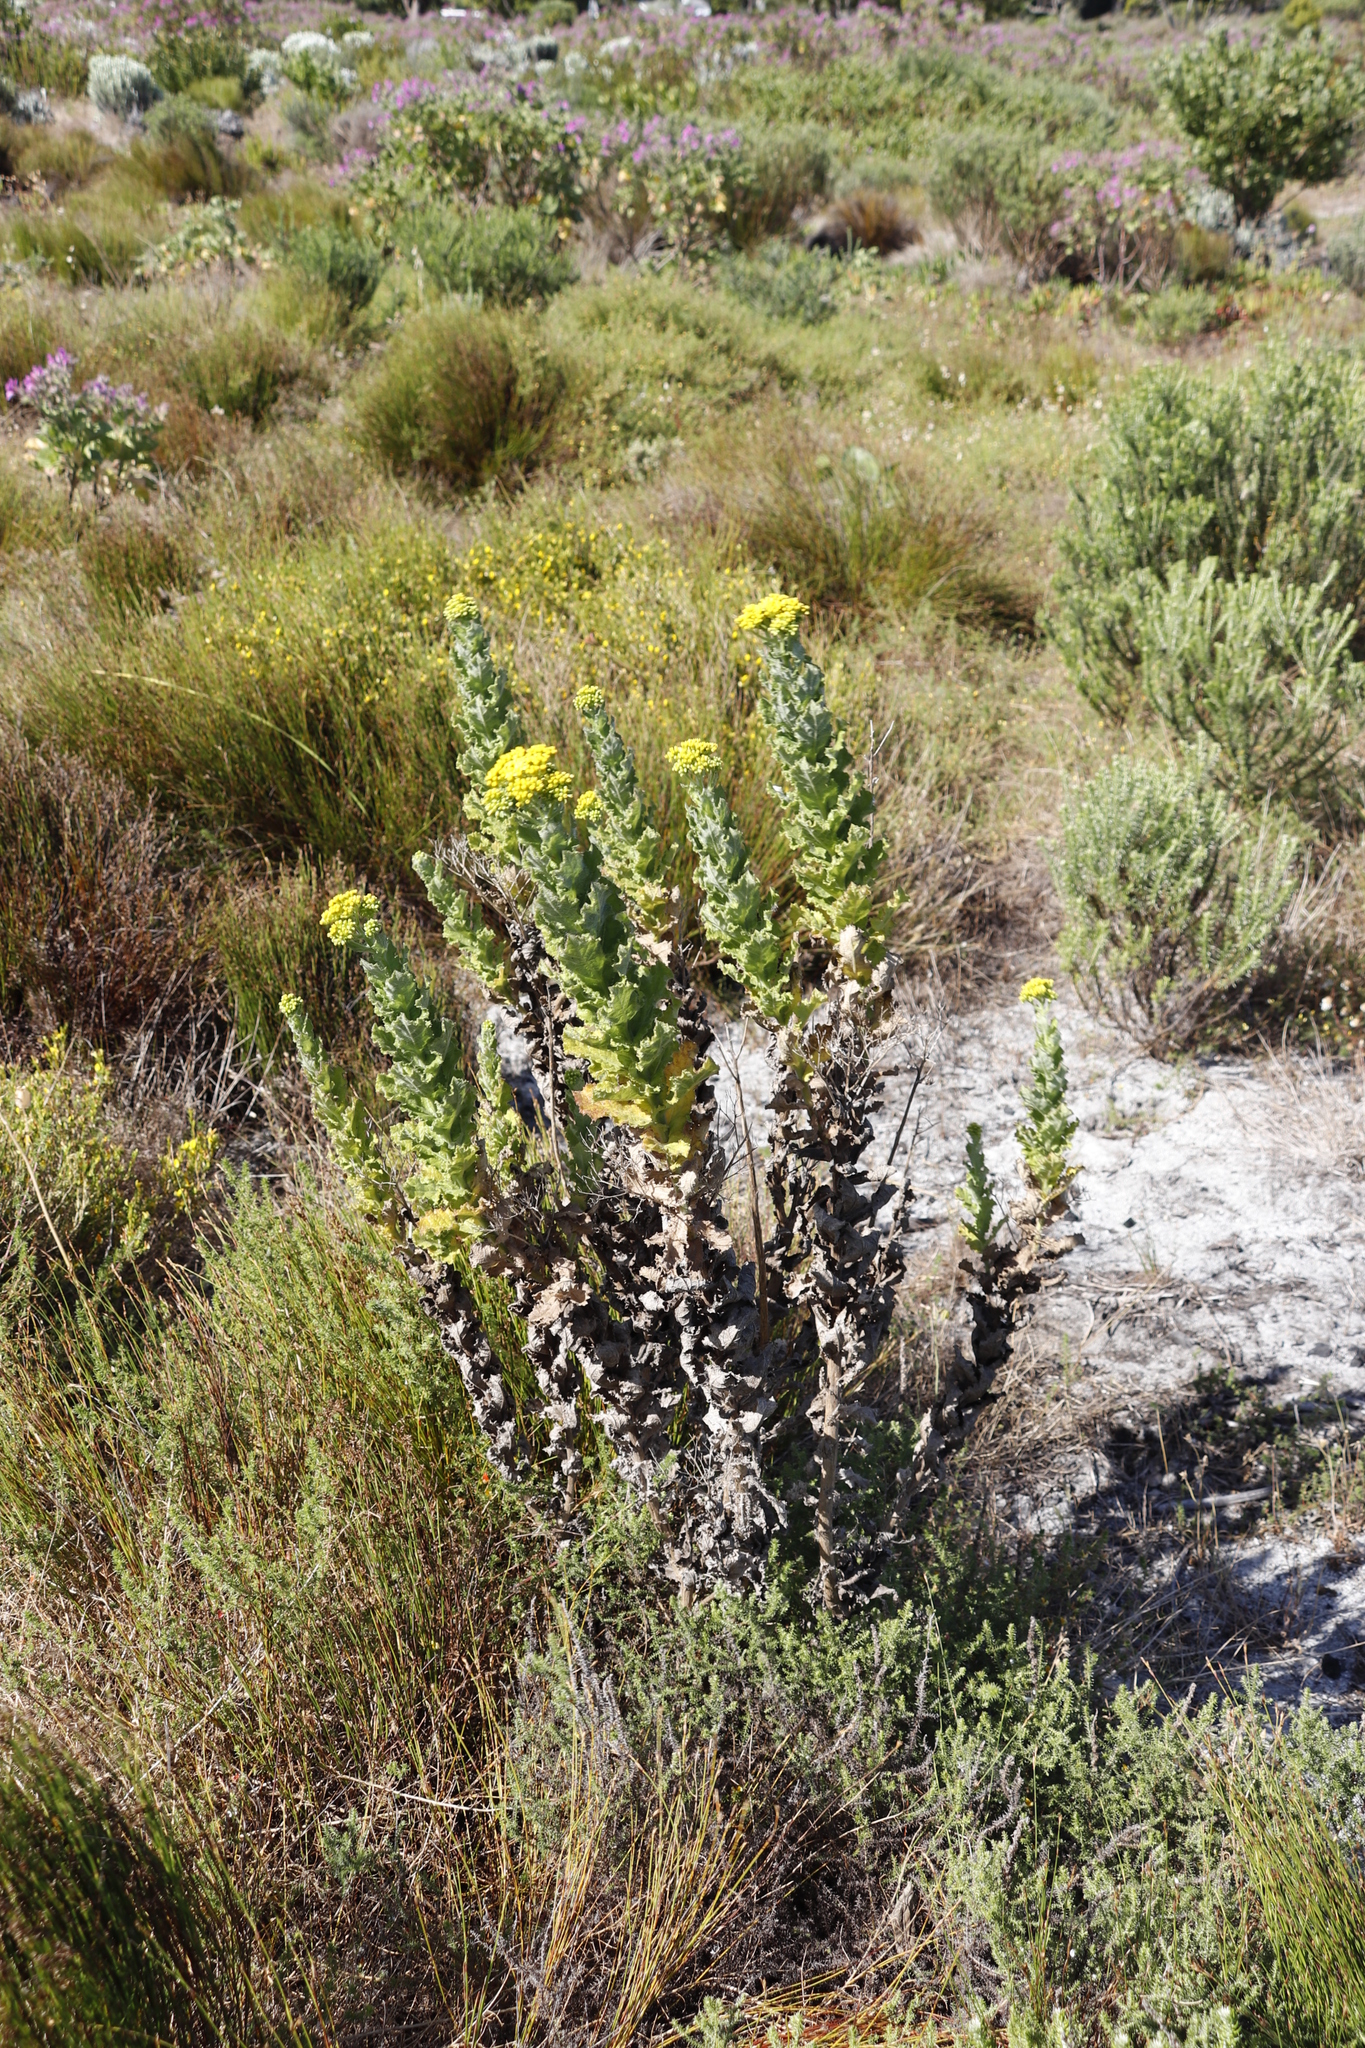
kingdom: Plantae
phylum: Tracheophyta
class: Magnoliopsida
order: Asterales
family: Asteraceae
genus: Senecio
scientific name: Senecio rigidus
